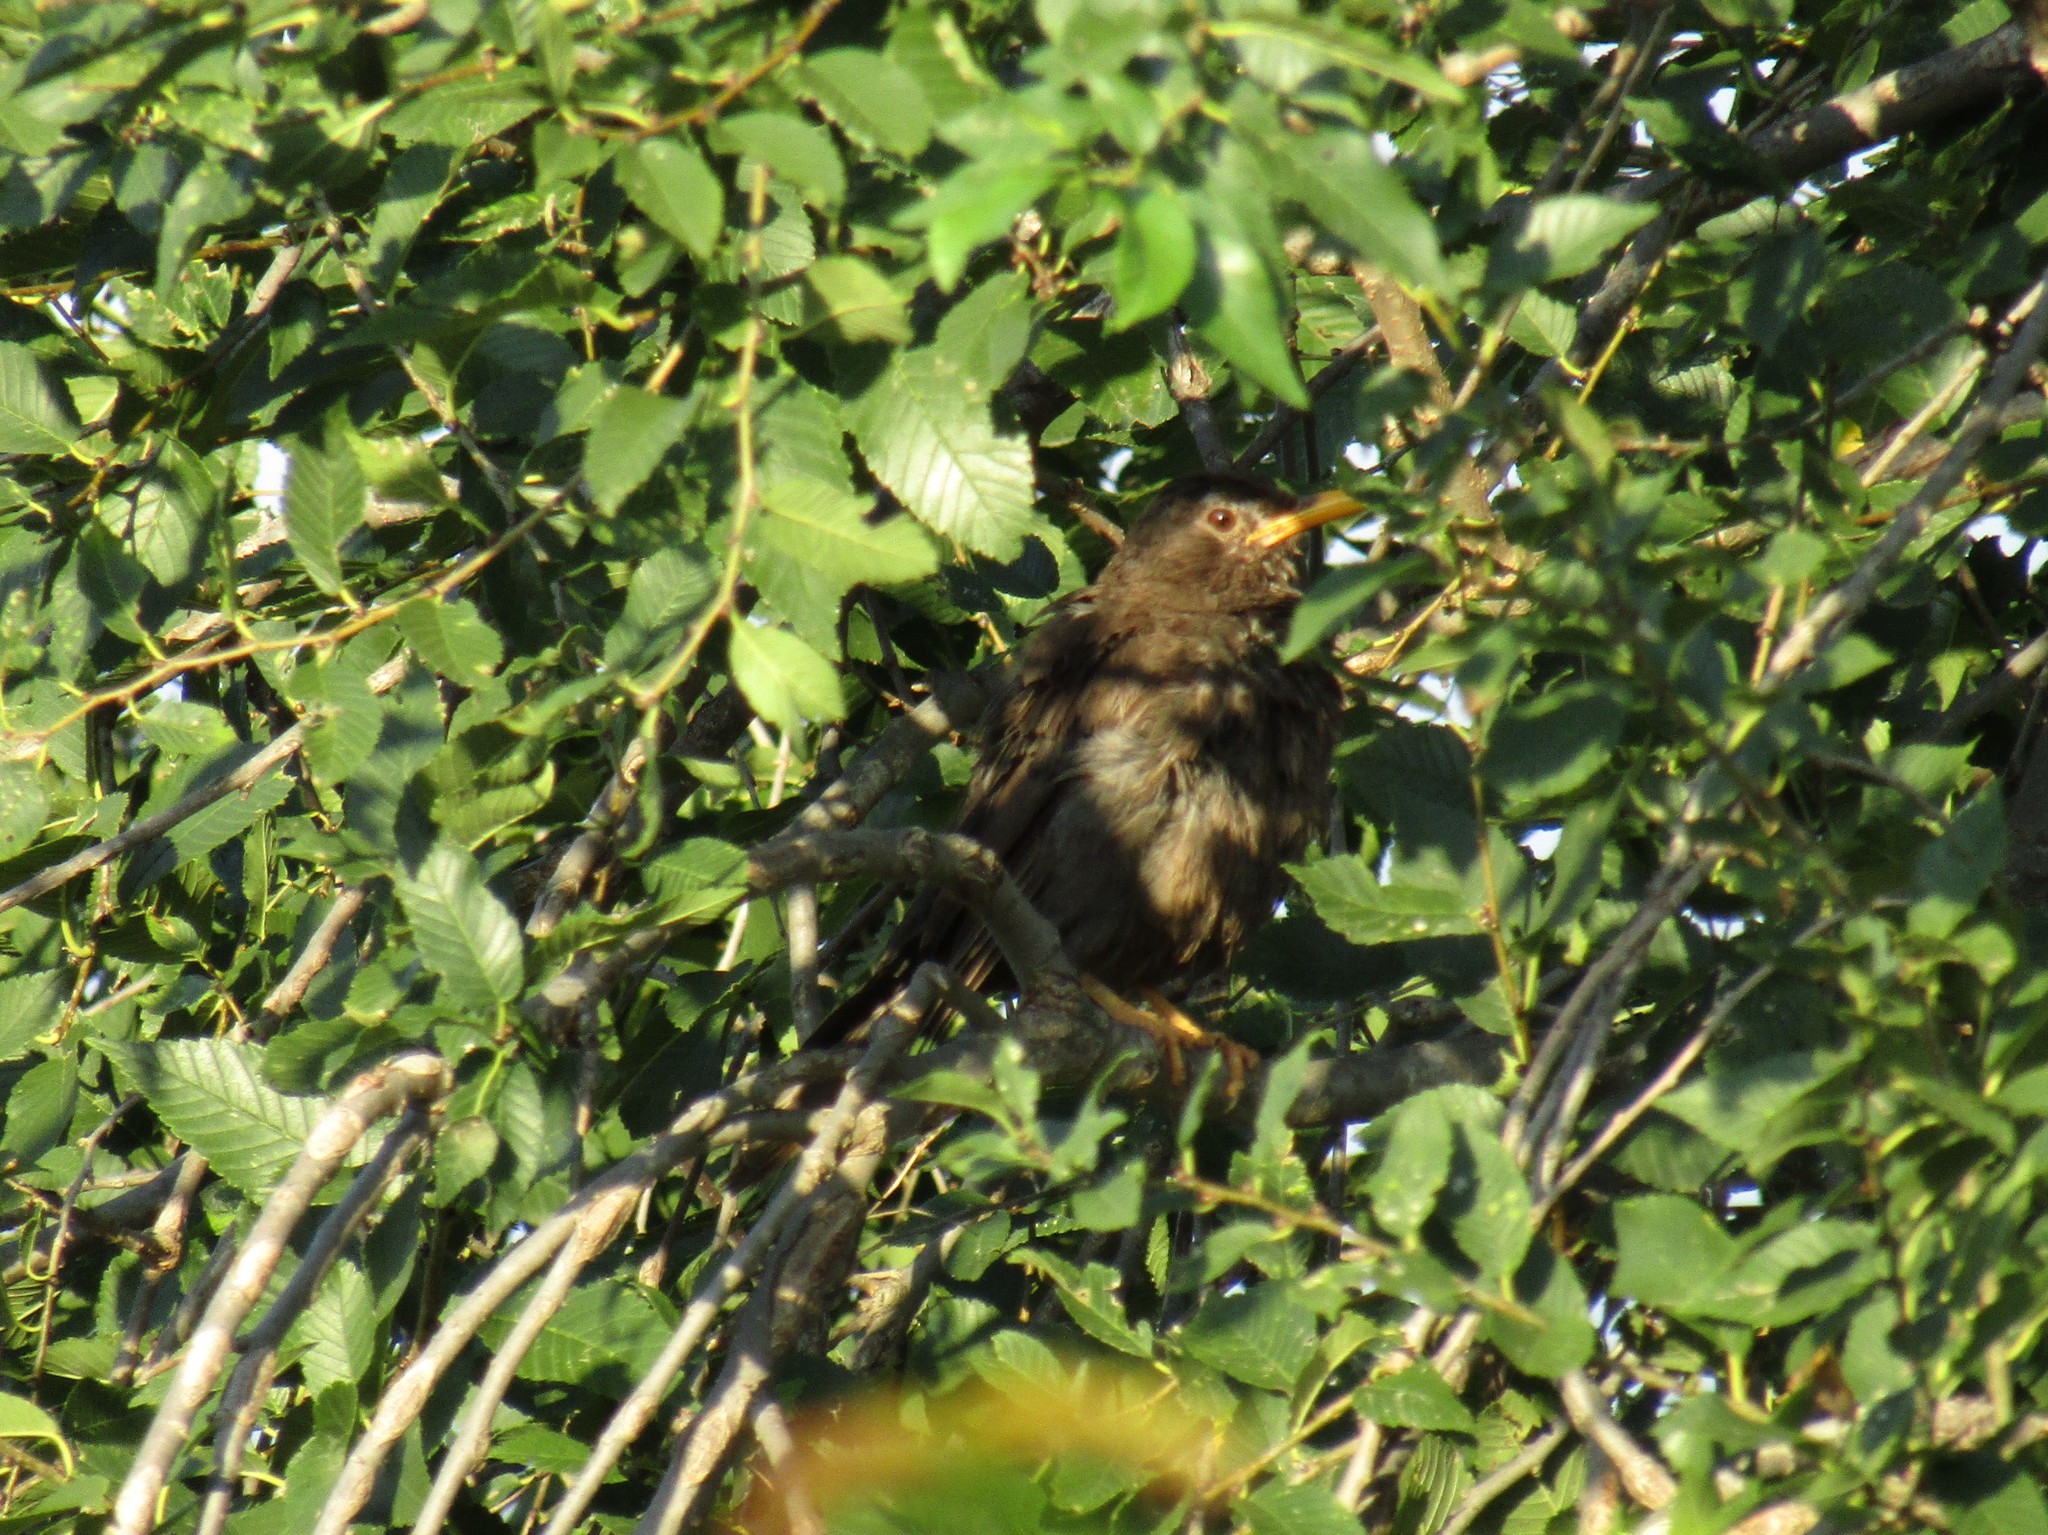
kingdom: Animalia
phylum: Chordata
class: Aves
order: Passeriformes
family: Turdidae
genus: Turdus
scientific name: Turdus chiguanco
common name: Chiguanco thrush
